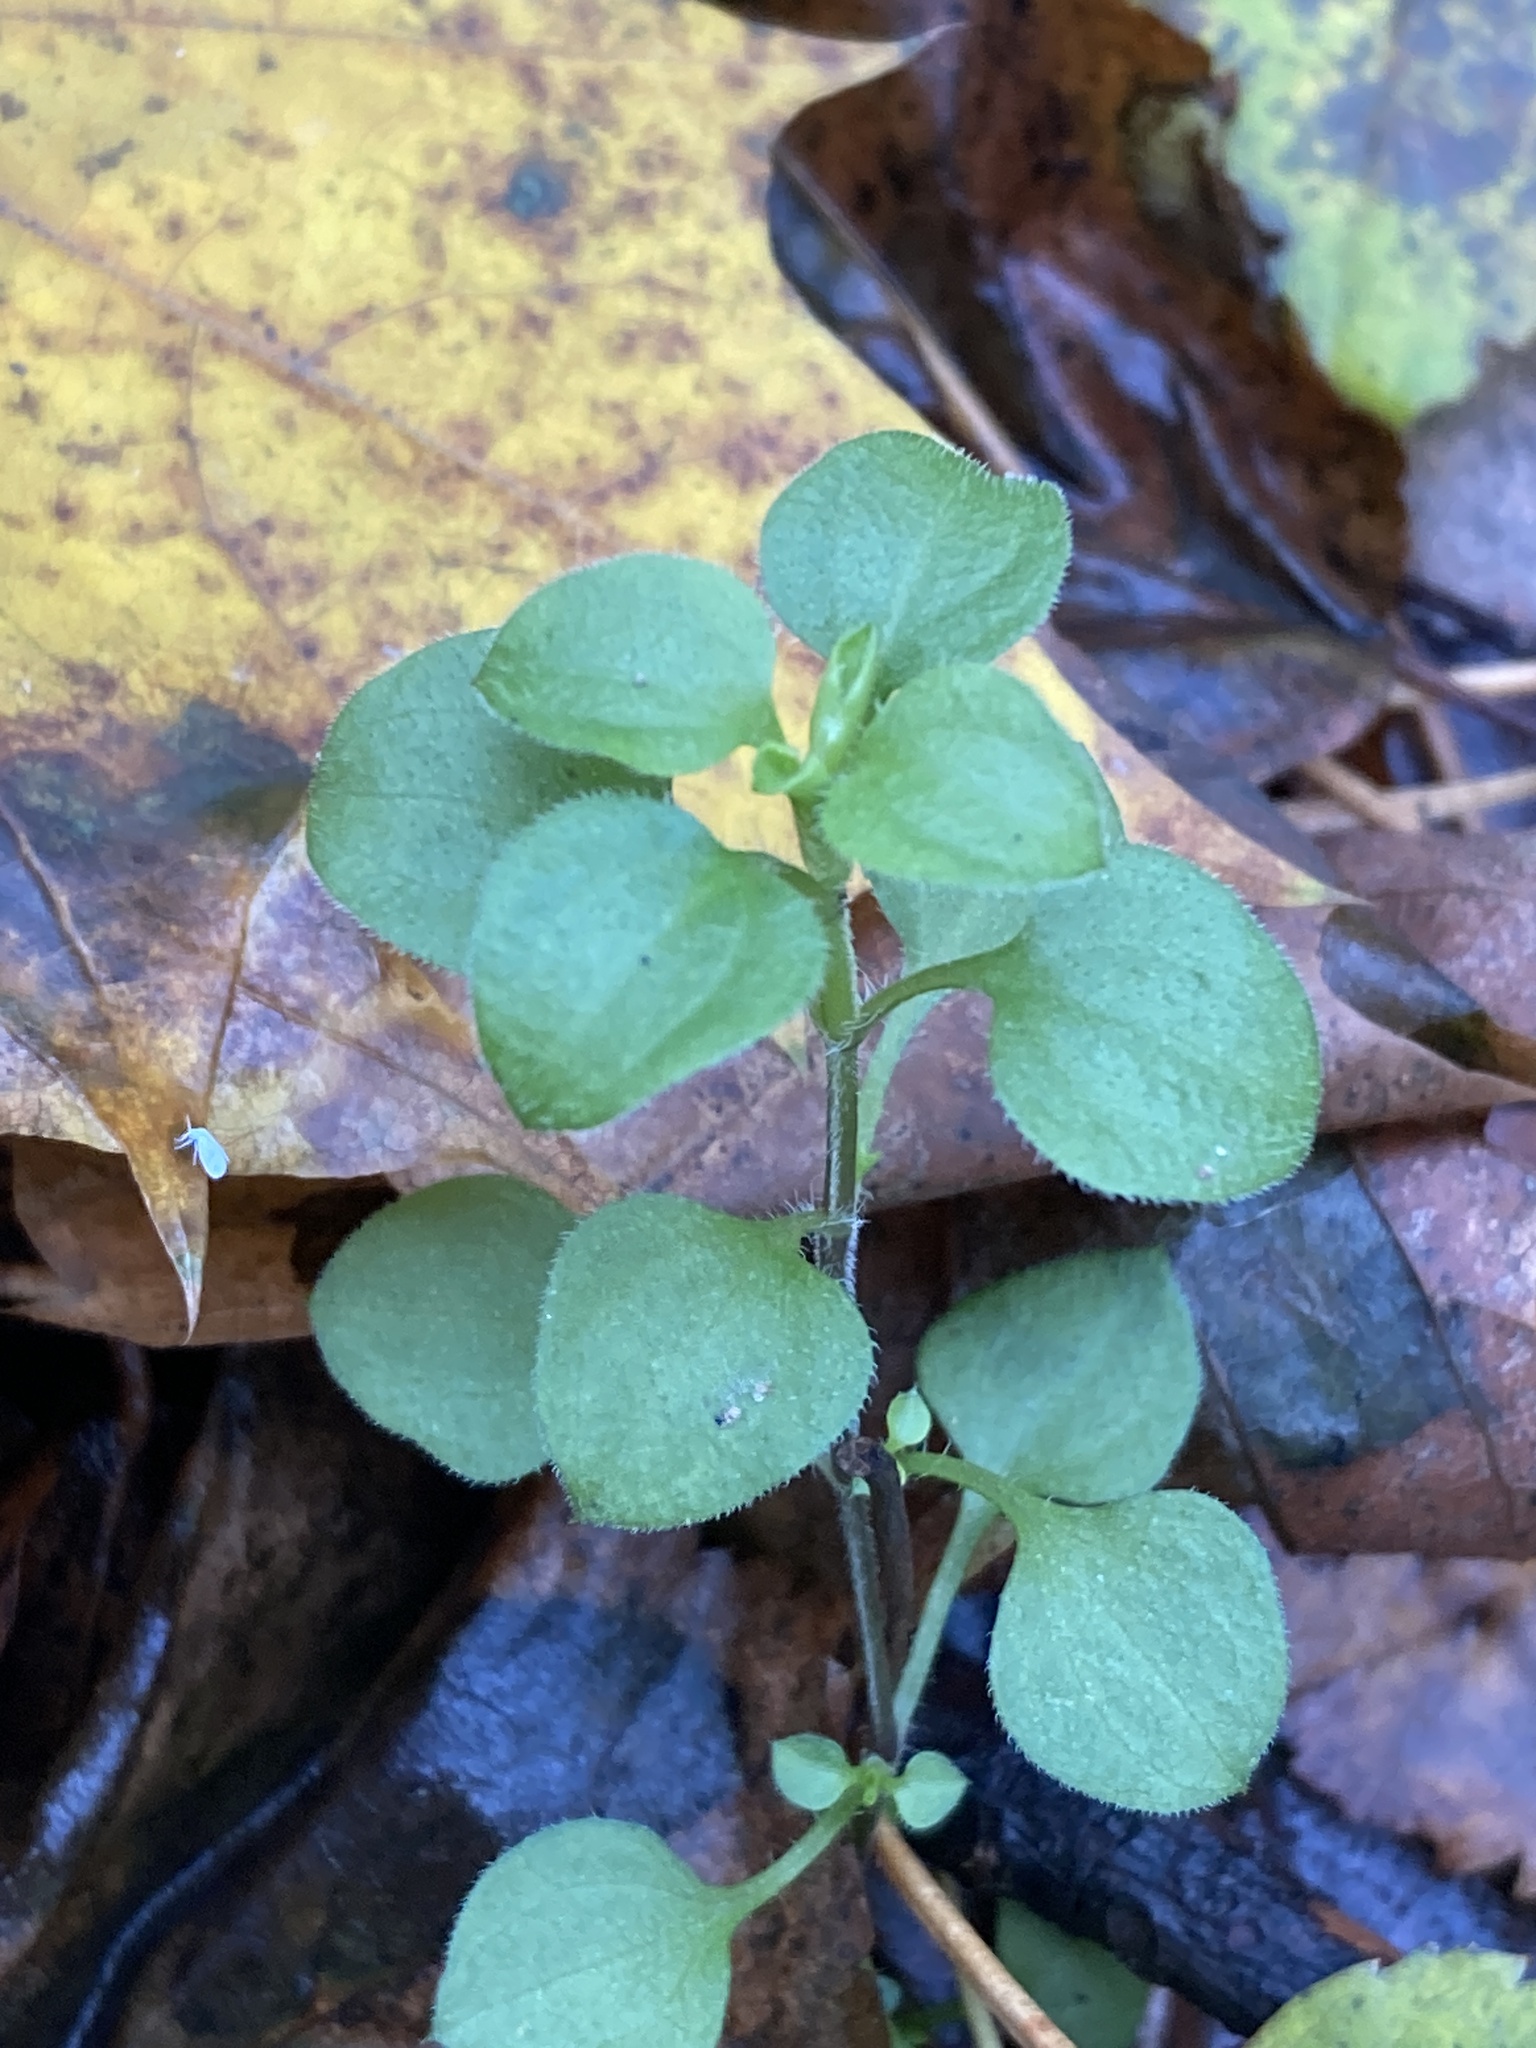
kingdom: Plantae
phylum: Tracheophyta
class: Magnoliopsida
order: Caryophyllales
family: Caryophyllaceae
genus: Moehringia
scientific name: Moehringia trinervia
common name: Three-nerved sandwort
